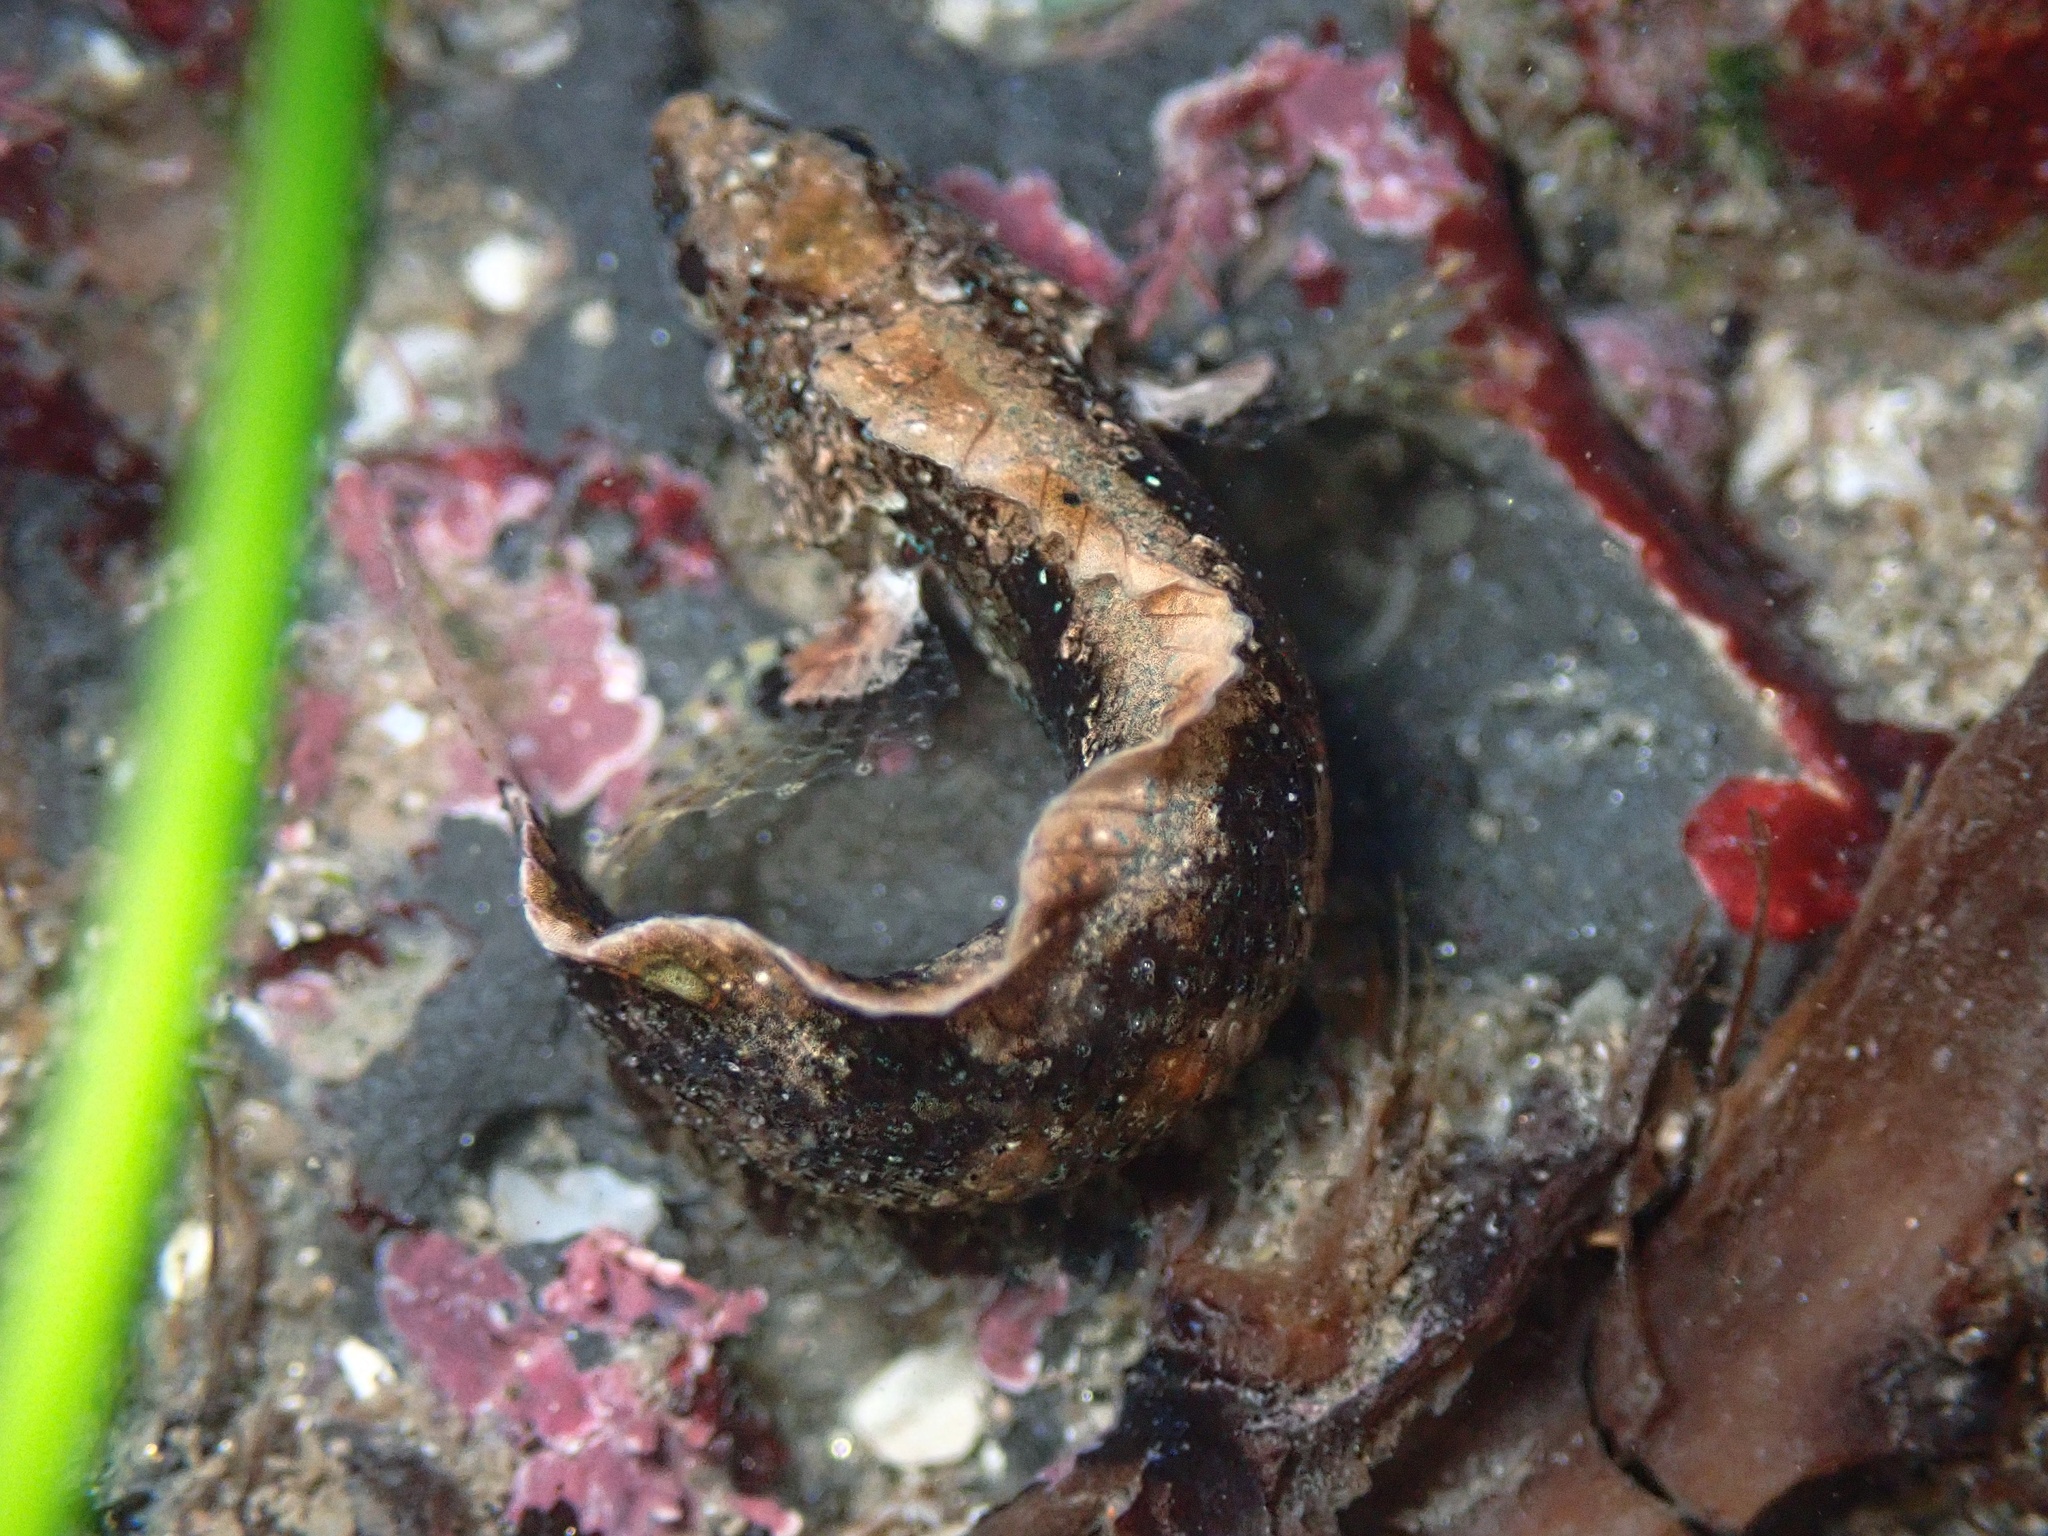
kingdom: Animalia
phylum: Chordata
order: Perciformes
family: Labrisomidae
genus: Paraclinus
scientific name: Paraclinus integripinnis
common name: Reef finspot
